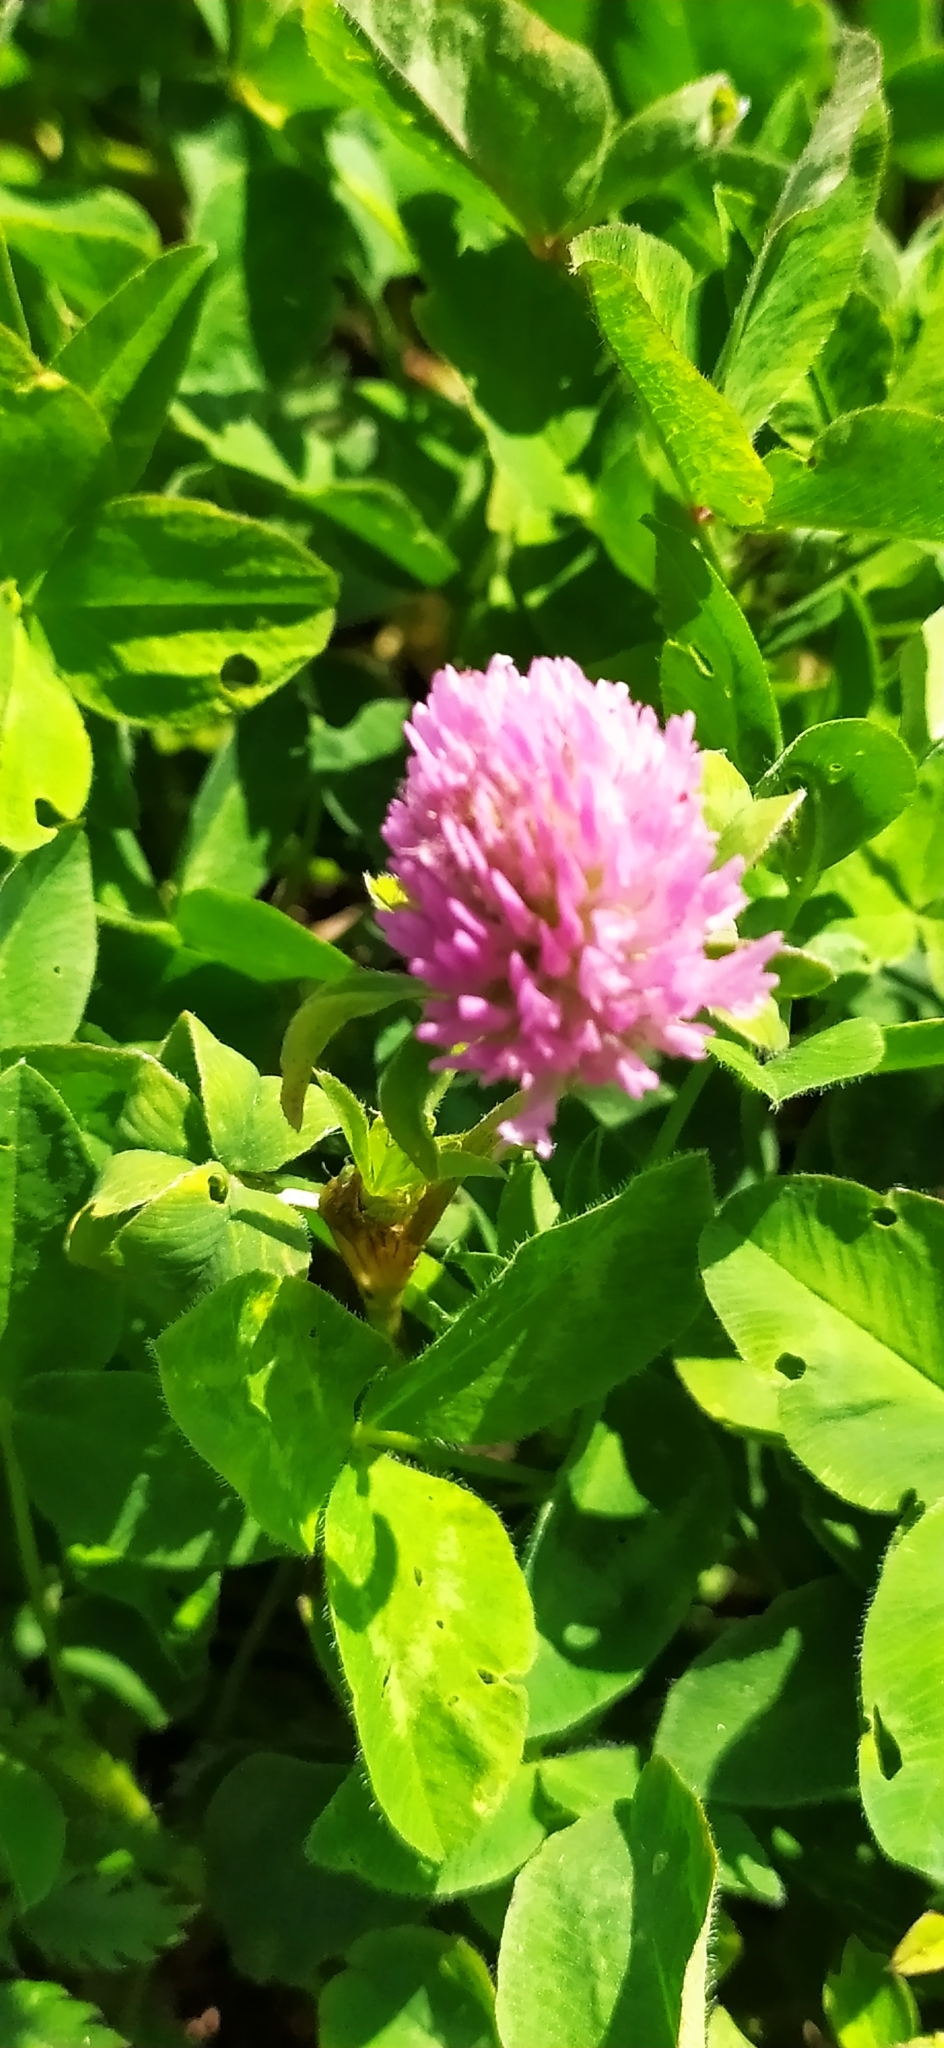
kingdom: Plantae
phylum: Tracheophyta
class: Magnoliopsida
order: Fabales
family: Fabaceae
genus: Trifolium
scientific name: Trifolium pratense
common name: Red clover
